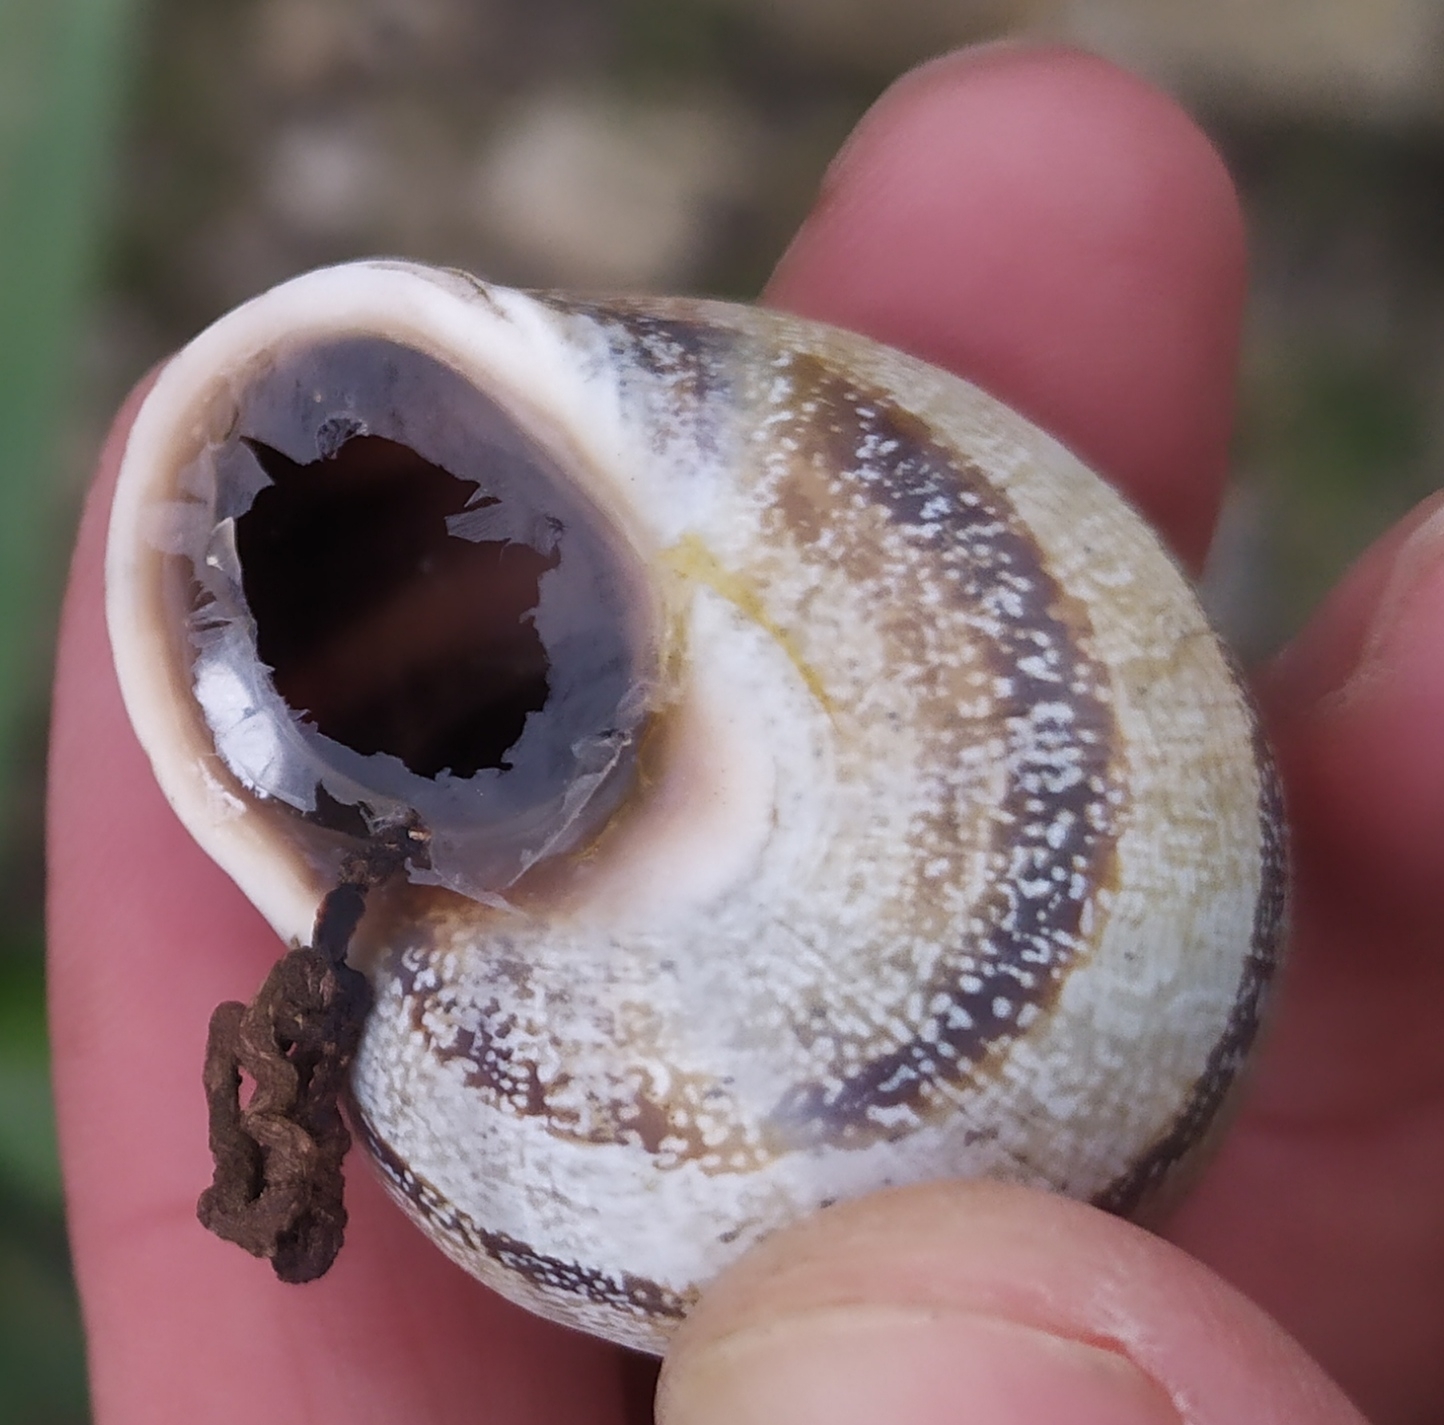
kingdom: Animalia
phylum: Mollusca
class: Gastropoda
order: Stylommatophora
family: Helicidae
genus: Otala
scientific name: Otala punctata
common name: Milk snail
